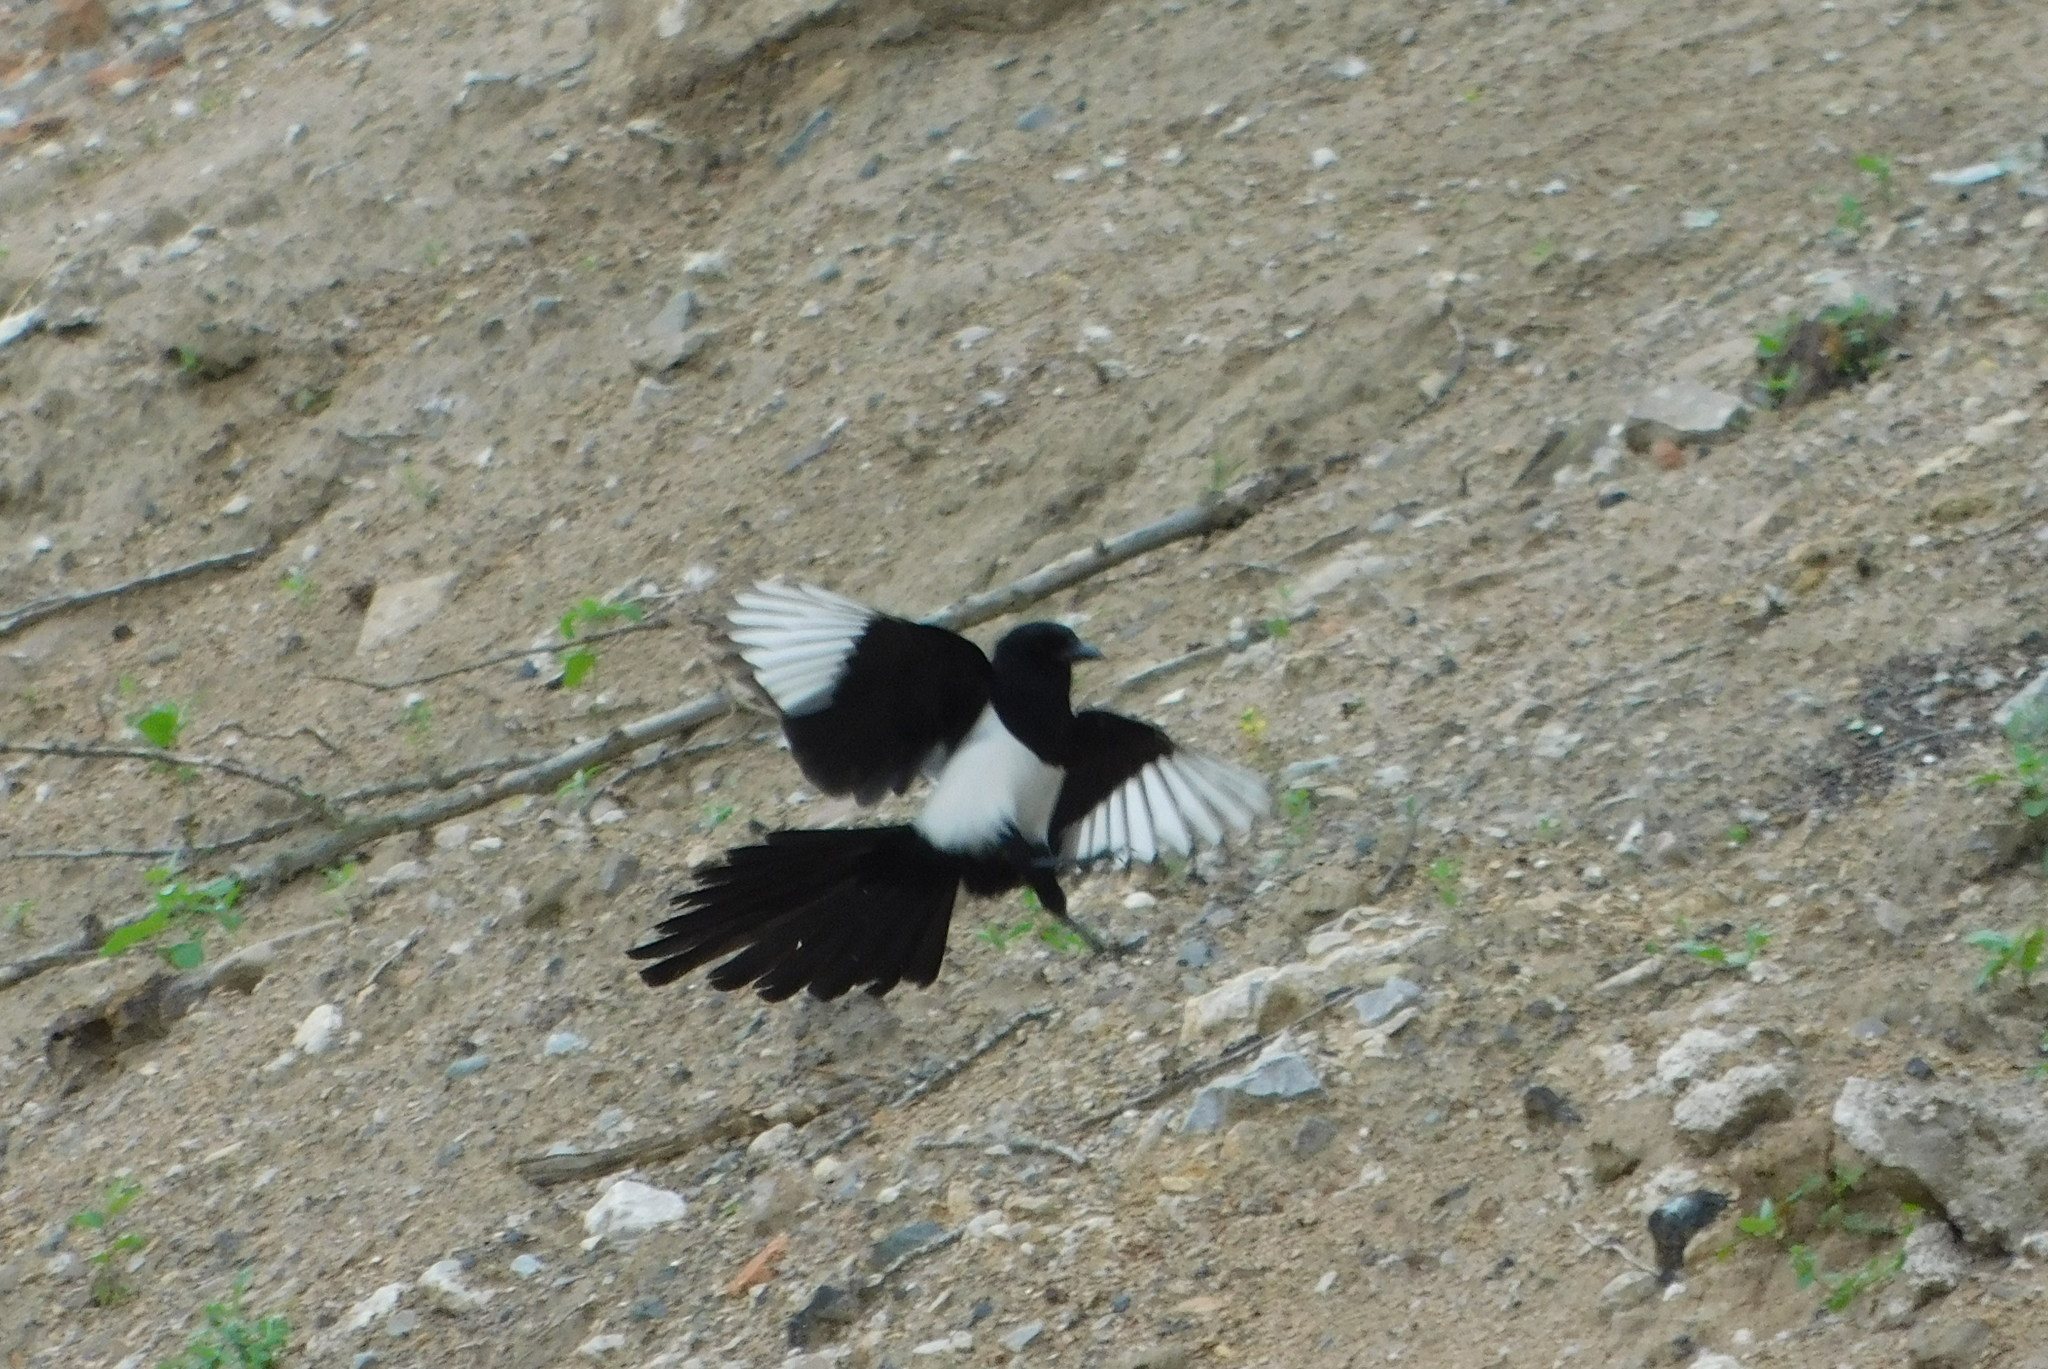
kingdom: Animalia
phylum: Chordata
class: Aves
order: Passeriformes
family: Corvidae
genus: Pica
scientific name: Pica pica
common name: Eurasian magpie
